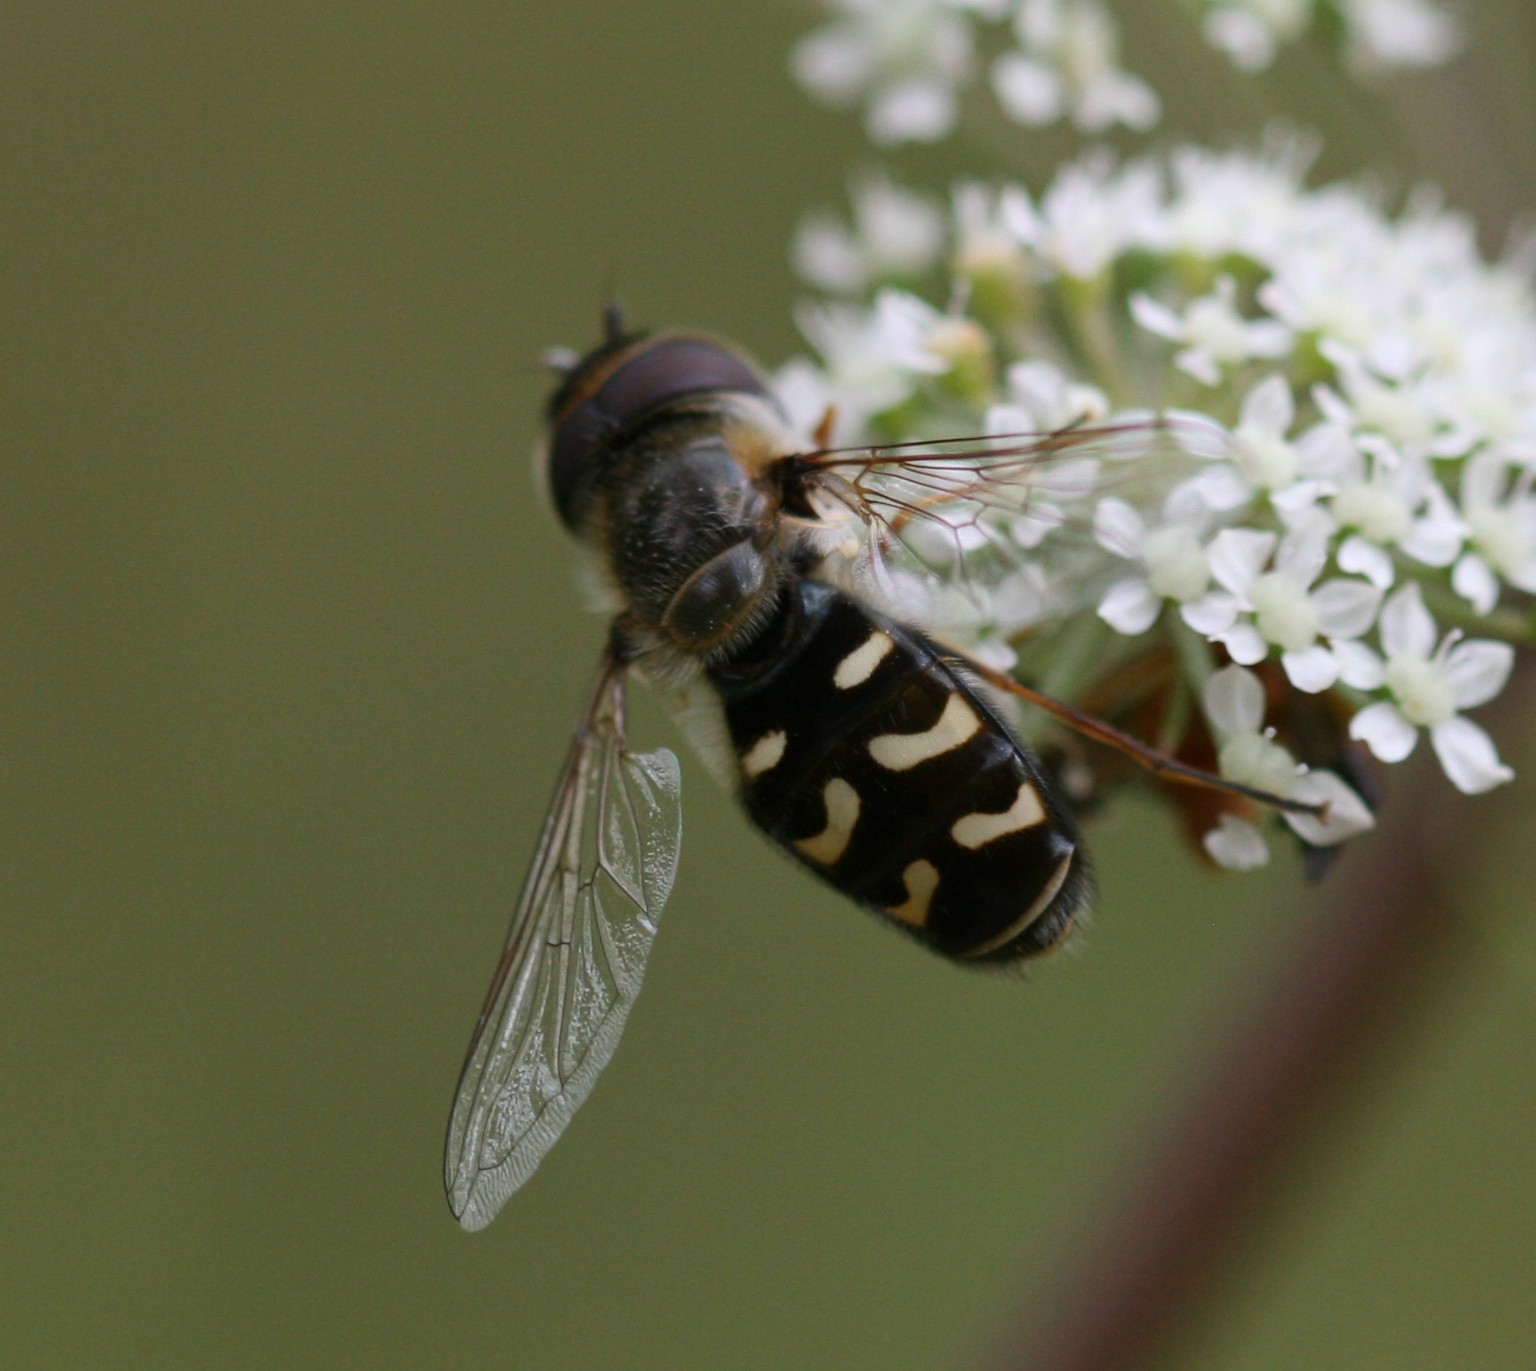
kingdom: Animalia
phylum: Arthropoda
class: Insecta
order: Diptera
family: Syrphidae
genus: Scaeva
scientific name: Scaeva pyrastri
